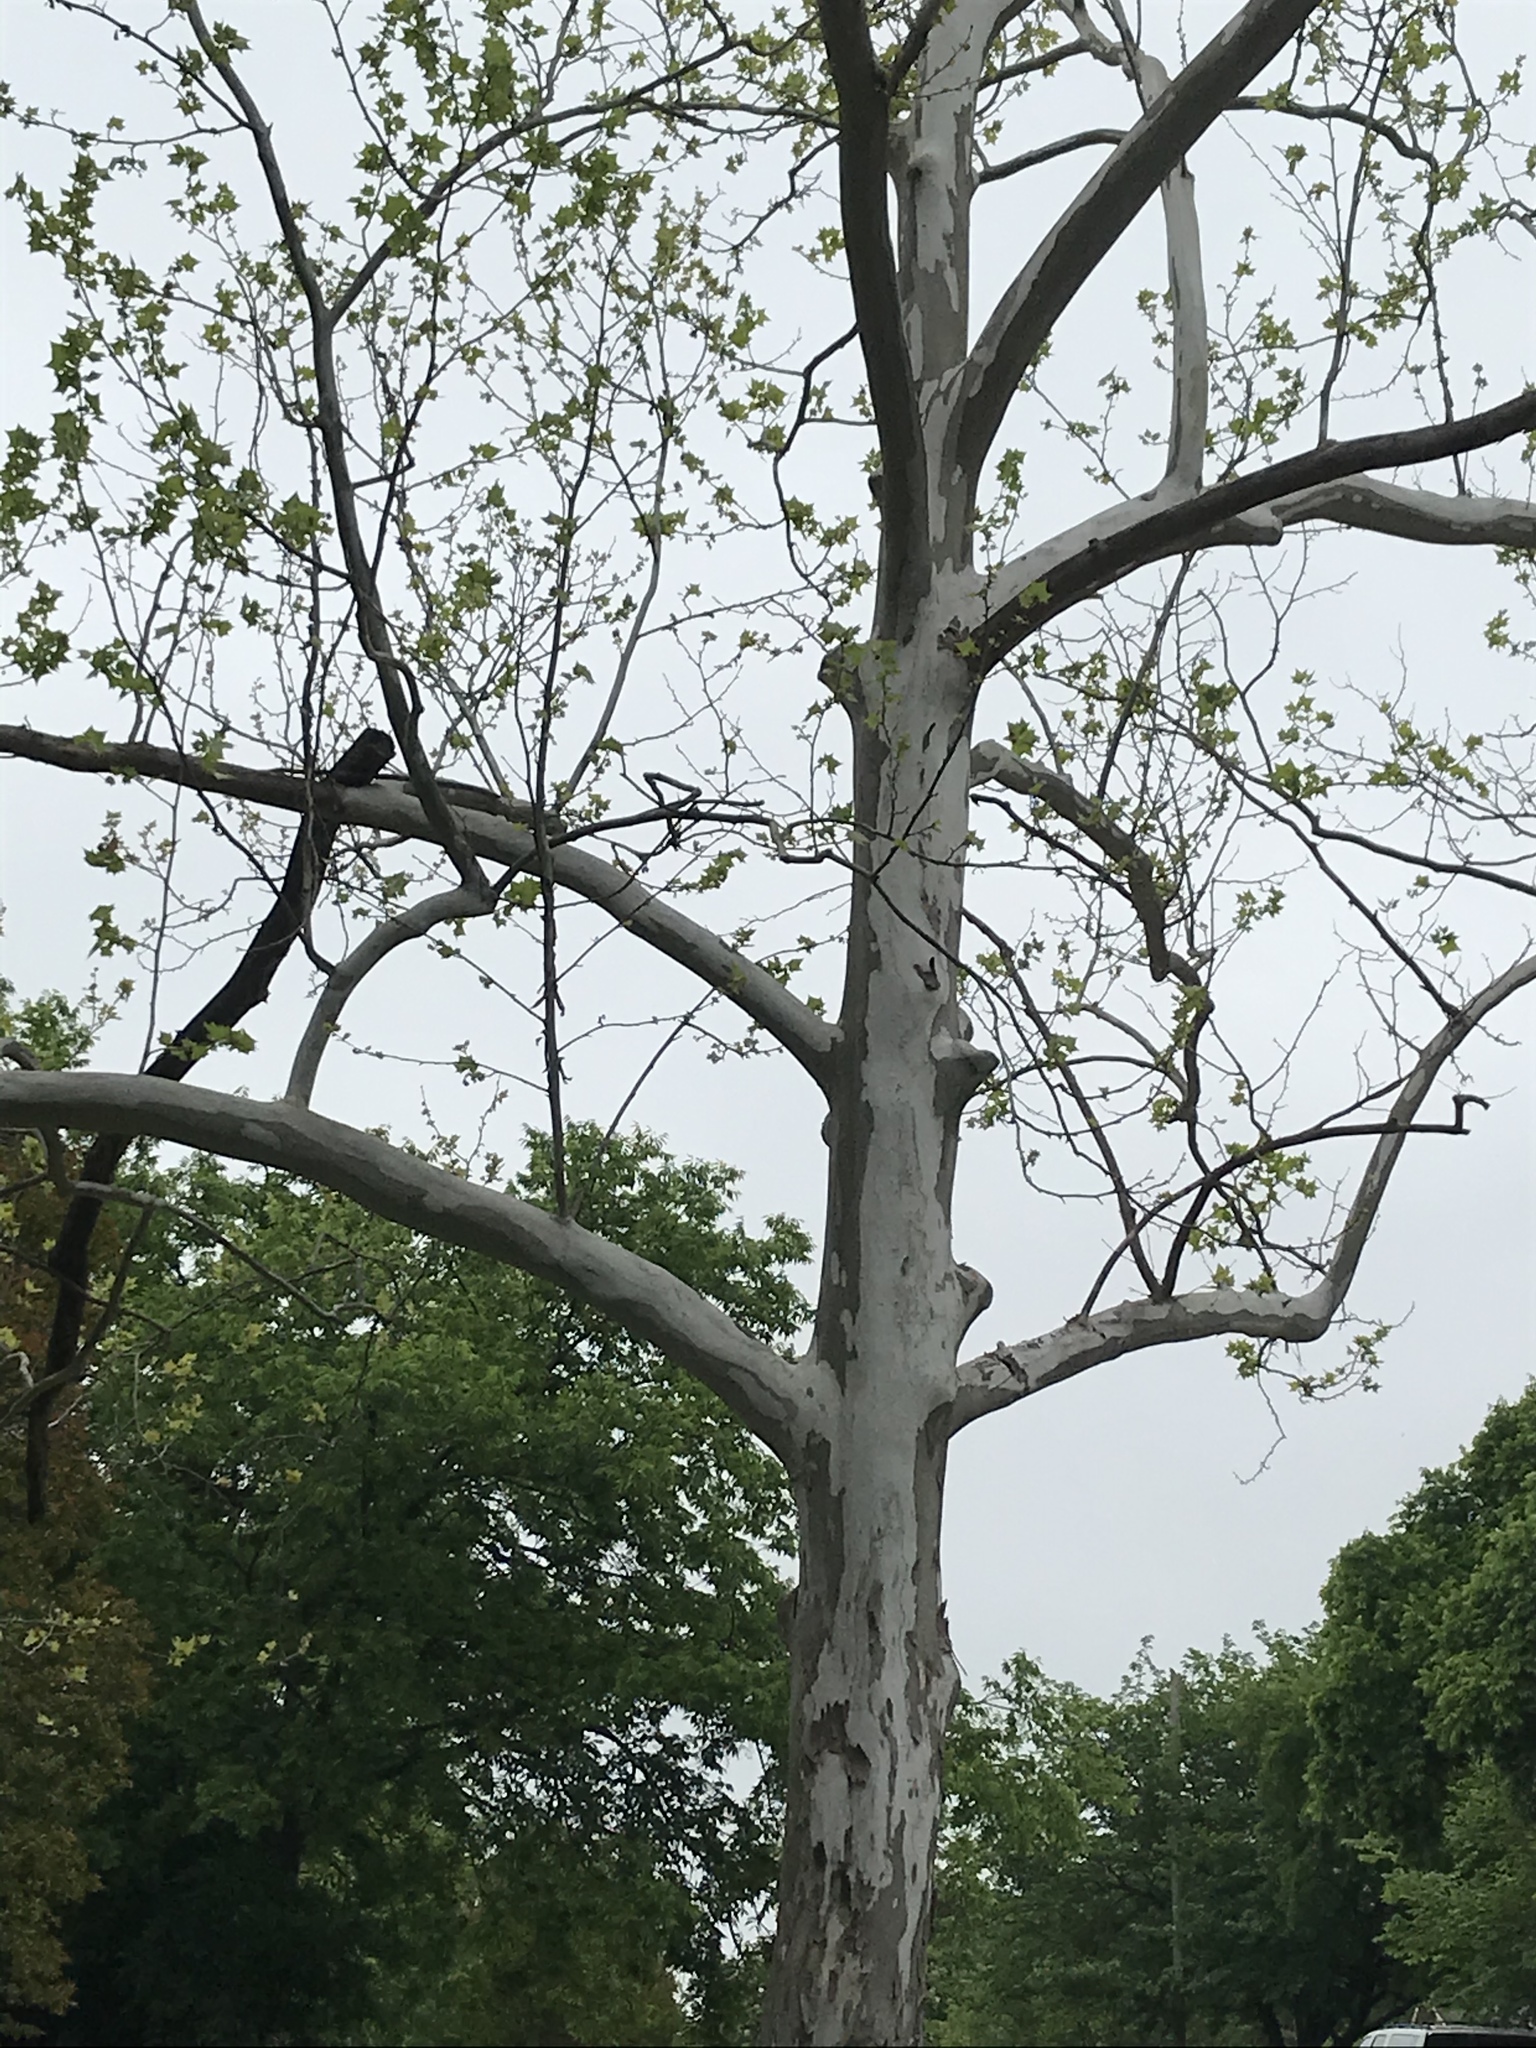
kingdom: Plantae
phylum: Tracheophyta
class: Magnoliopsida
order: Proteales
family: Platanaceae
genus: Platanus
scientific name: Platanus occidentalis
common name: American sycamore
